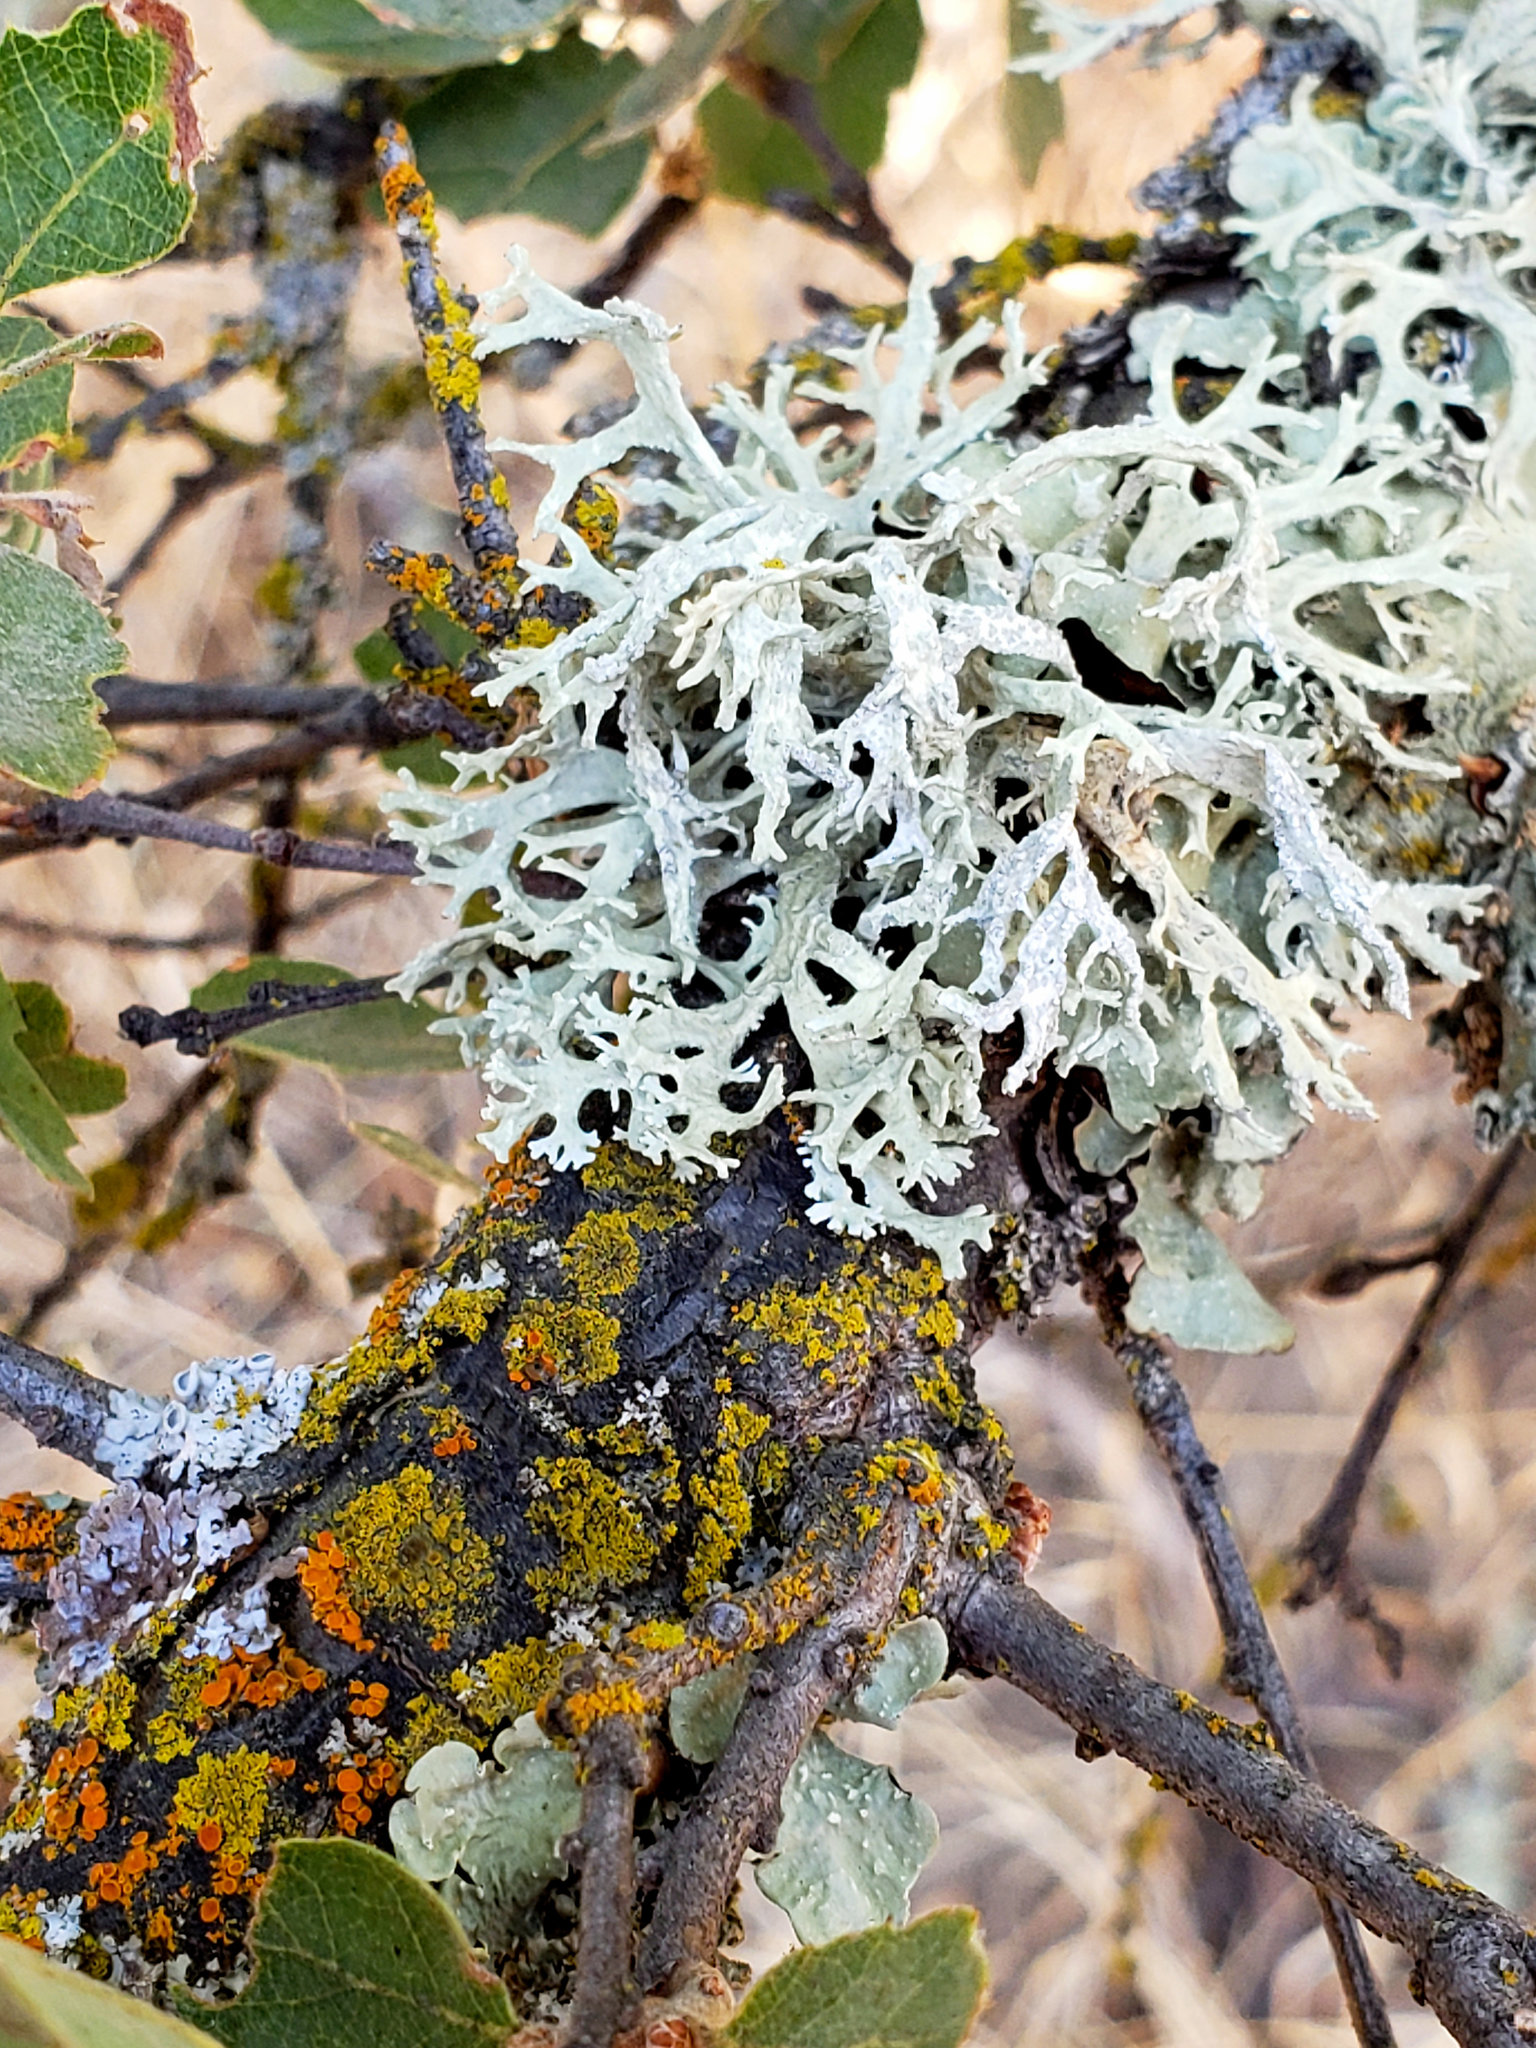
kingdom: Fungi
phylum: Ascomycota
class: Lecanoromycetes
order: Lecanorales
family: Parmeliaceae
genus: Evernia
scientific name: Evernia prunastri
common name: Oak moss
